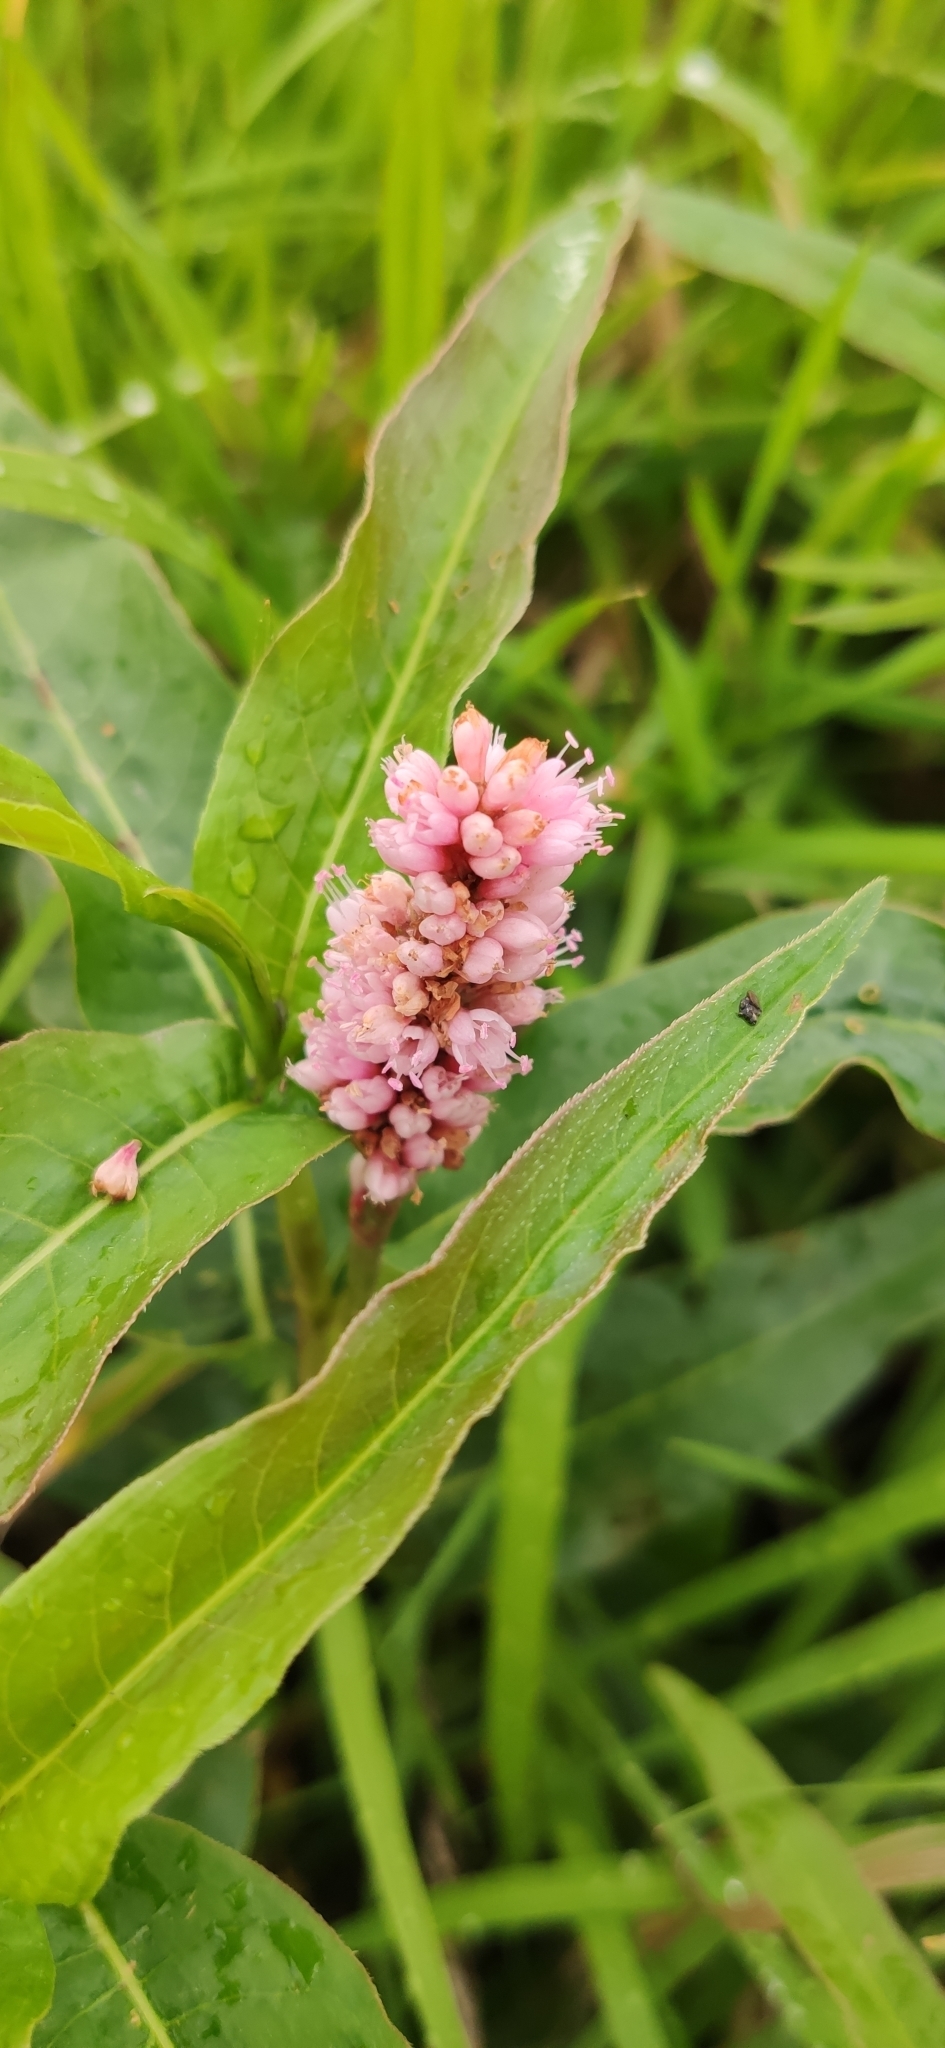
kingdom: Plantae
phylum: Tracheophyta
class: Magnoliopsida
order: Caryophyllales
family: Polygonaceae
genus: Persicaria
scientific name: Persicaria amphibia
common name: Amphibious bistort
